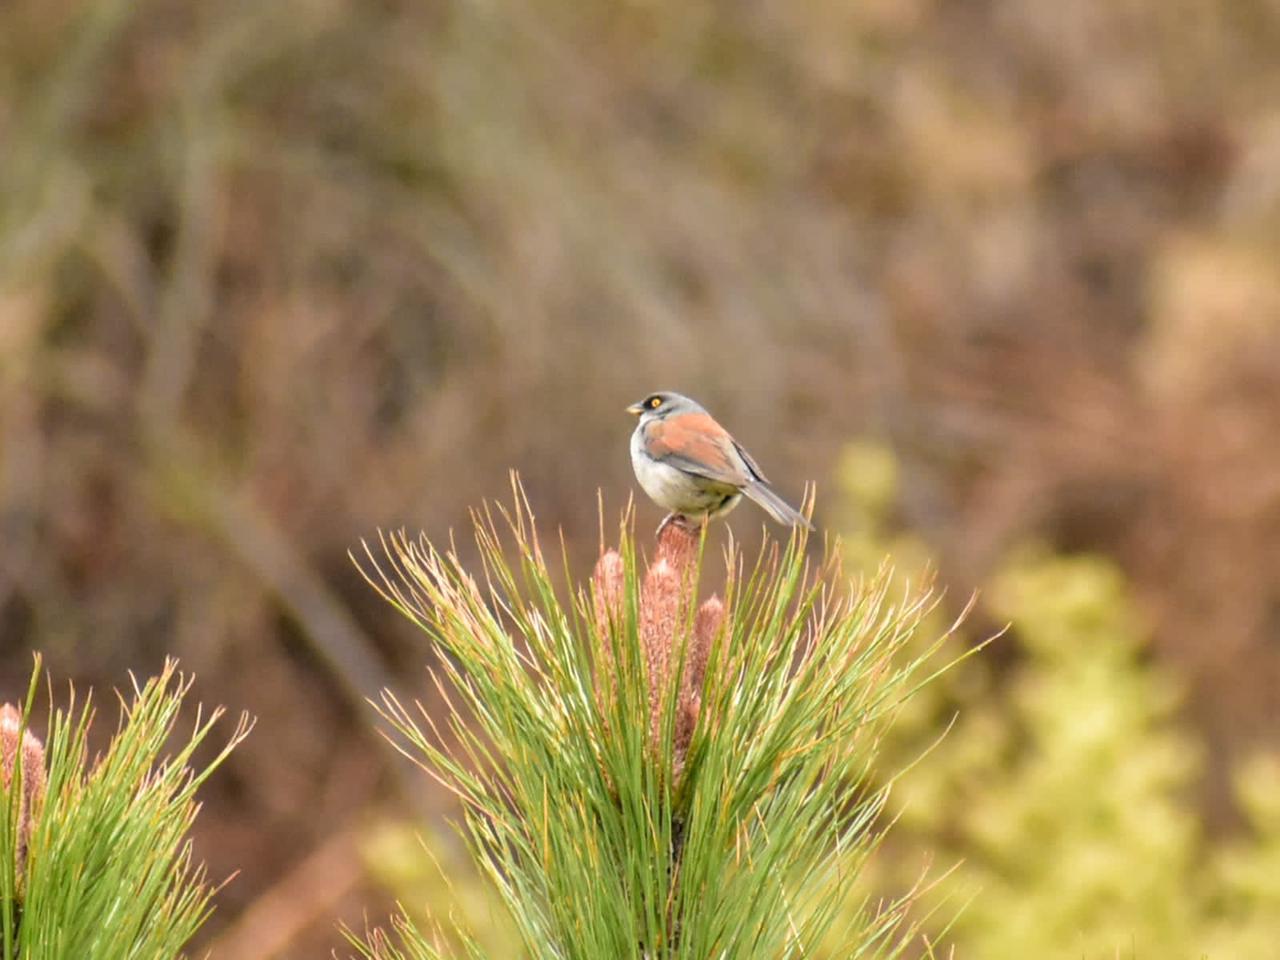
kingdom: Animalia
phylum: Chordata
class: Aves
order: Passeriformes
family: Passerellidae
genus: Junco
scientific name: Junco phaeonotus
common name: Yellow-eyed junco
